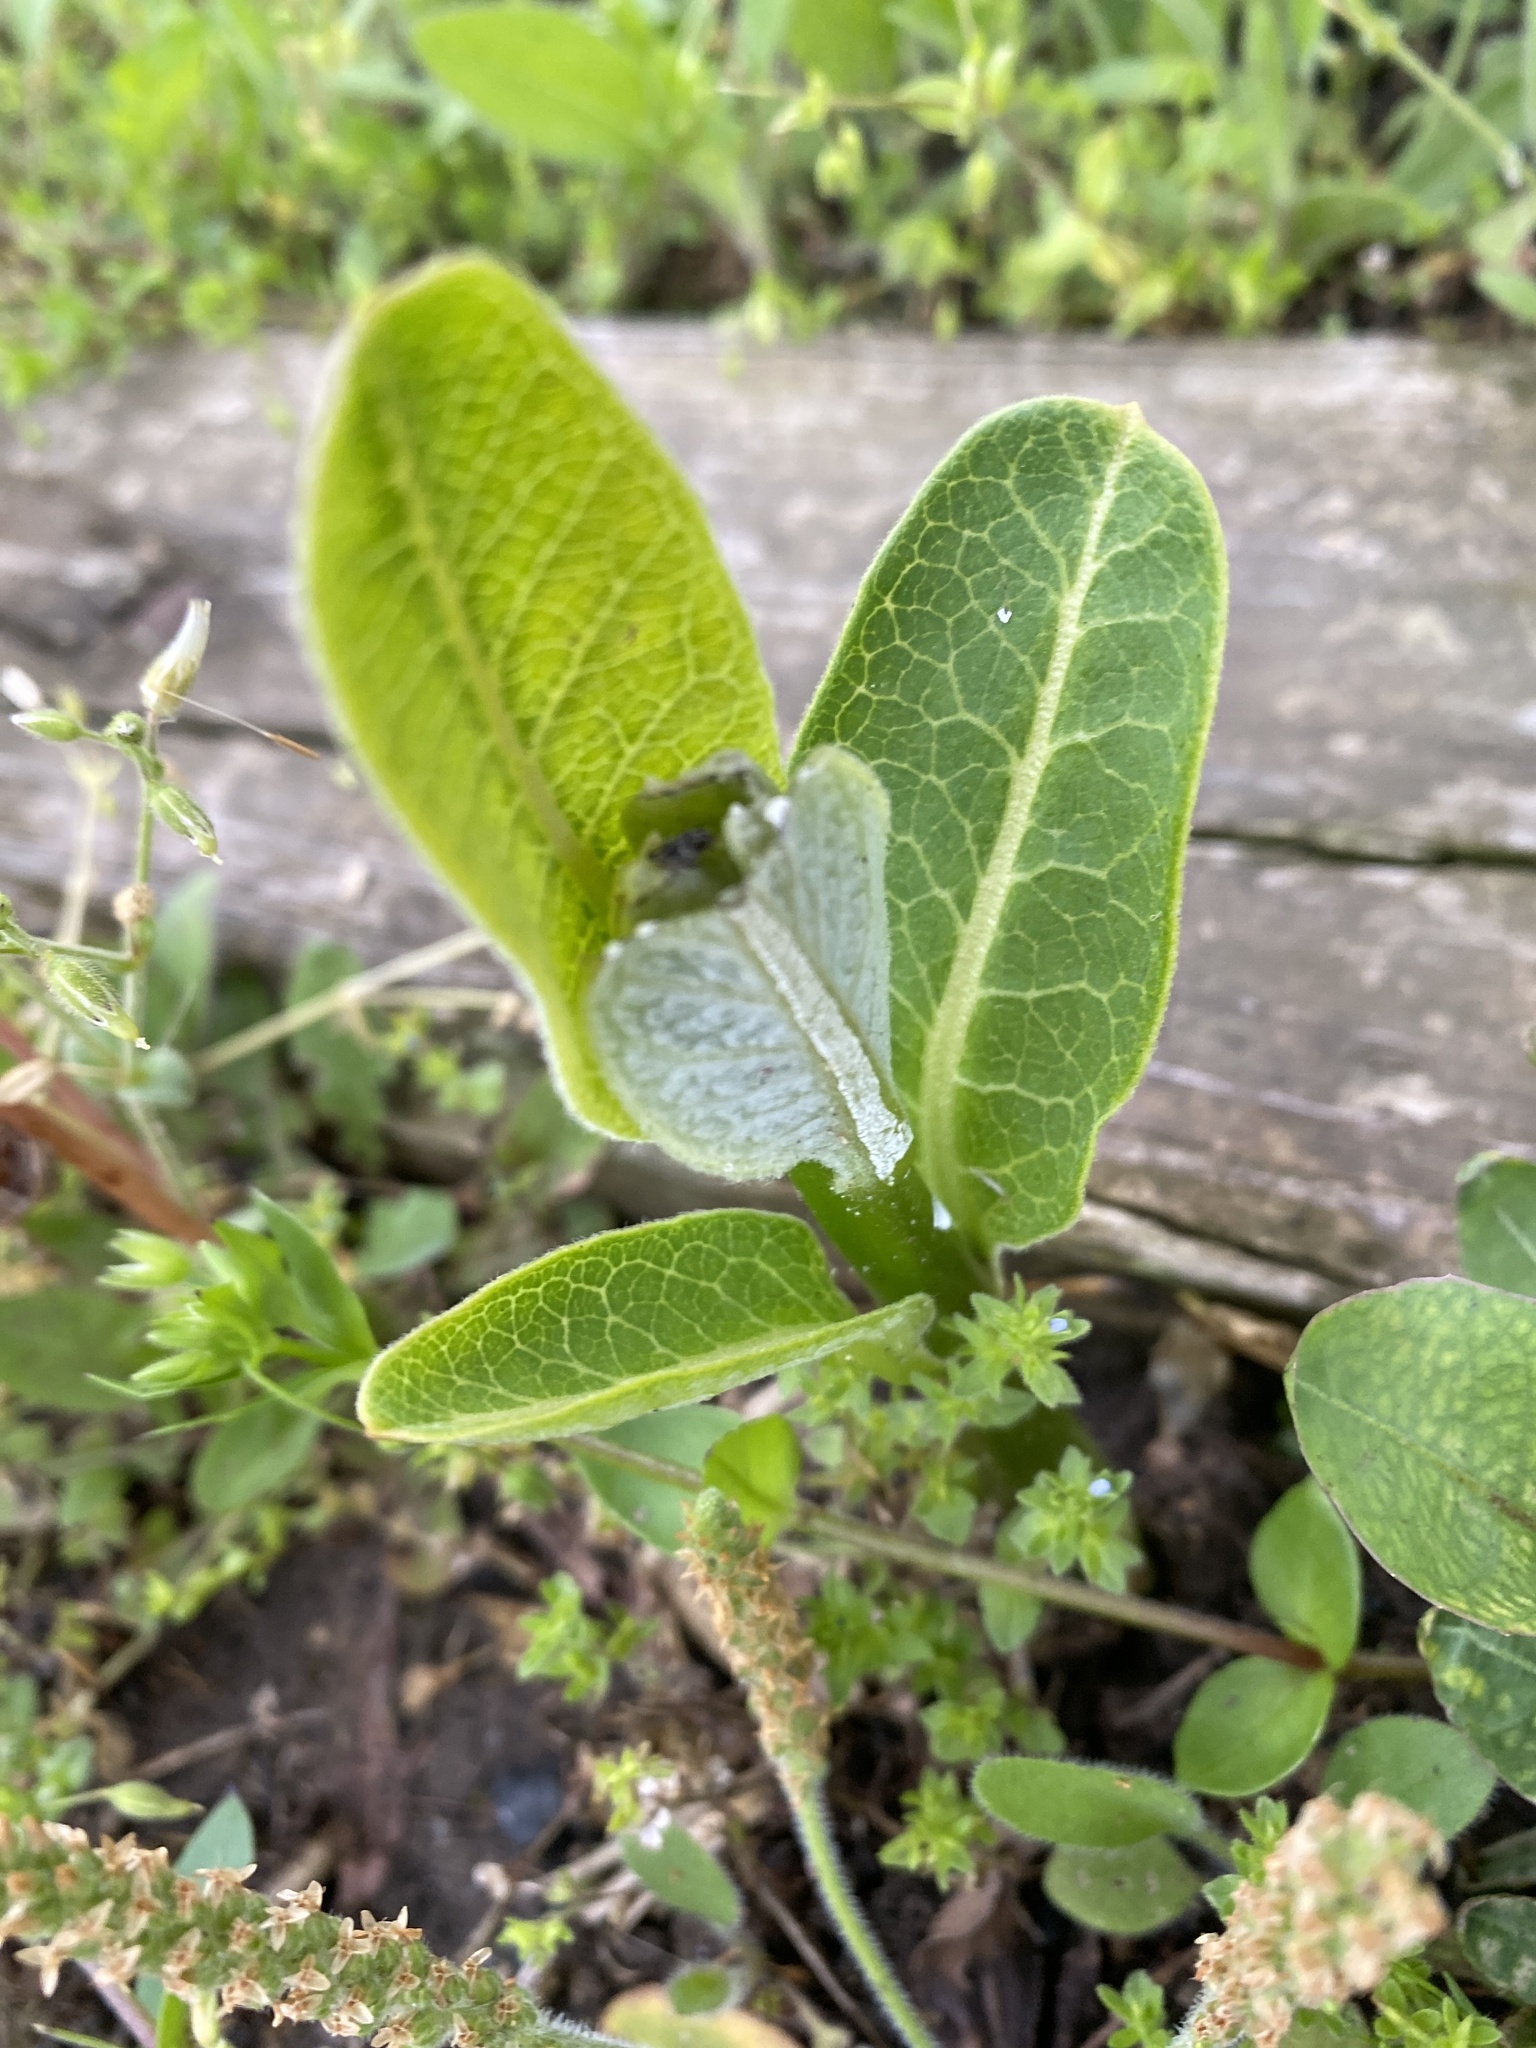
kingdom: Plantae
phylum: Tracheophyta
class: Magnoliopsida
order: Gentianales
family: Apocynaceae
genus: Asclepias
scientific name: Asclepias syriaca
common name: Common milkweed
